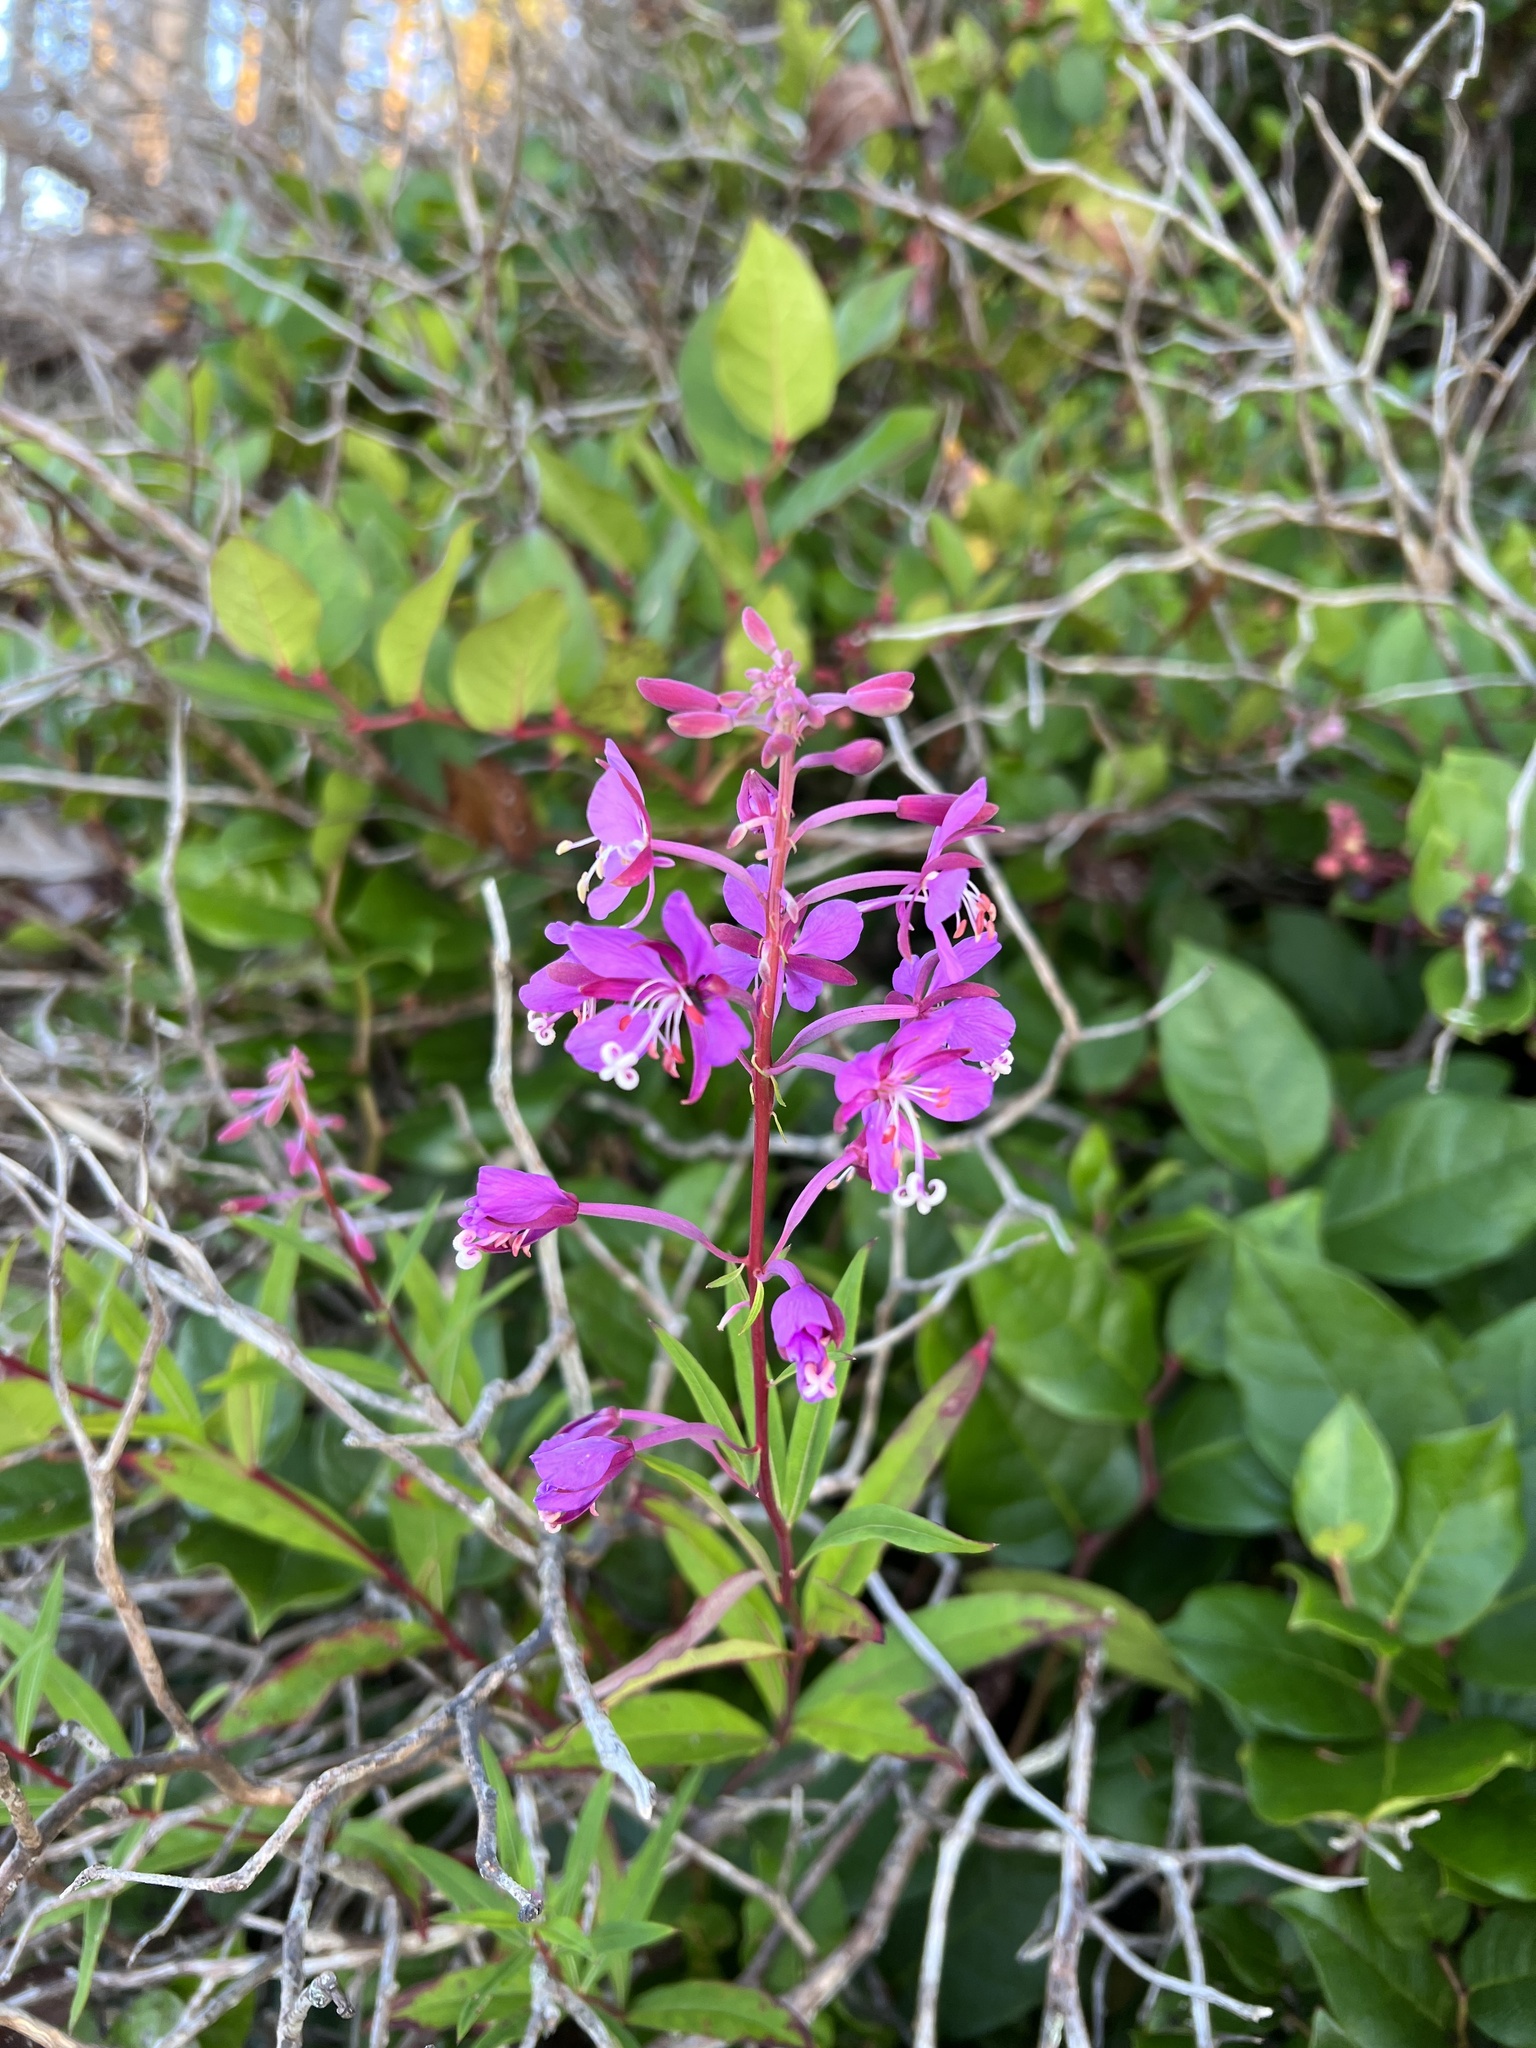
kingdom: Plantae
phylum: Tracheophyta
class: Magnoliopsida
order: Myrtales
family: Onagraceae
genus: Chamaenerion
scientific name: Chamaenerion angustifolium
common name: Fireweed
